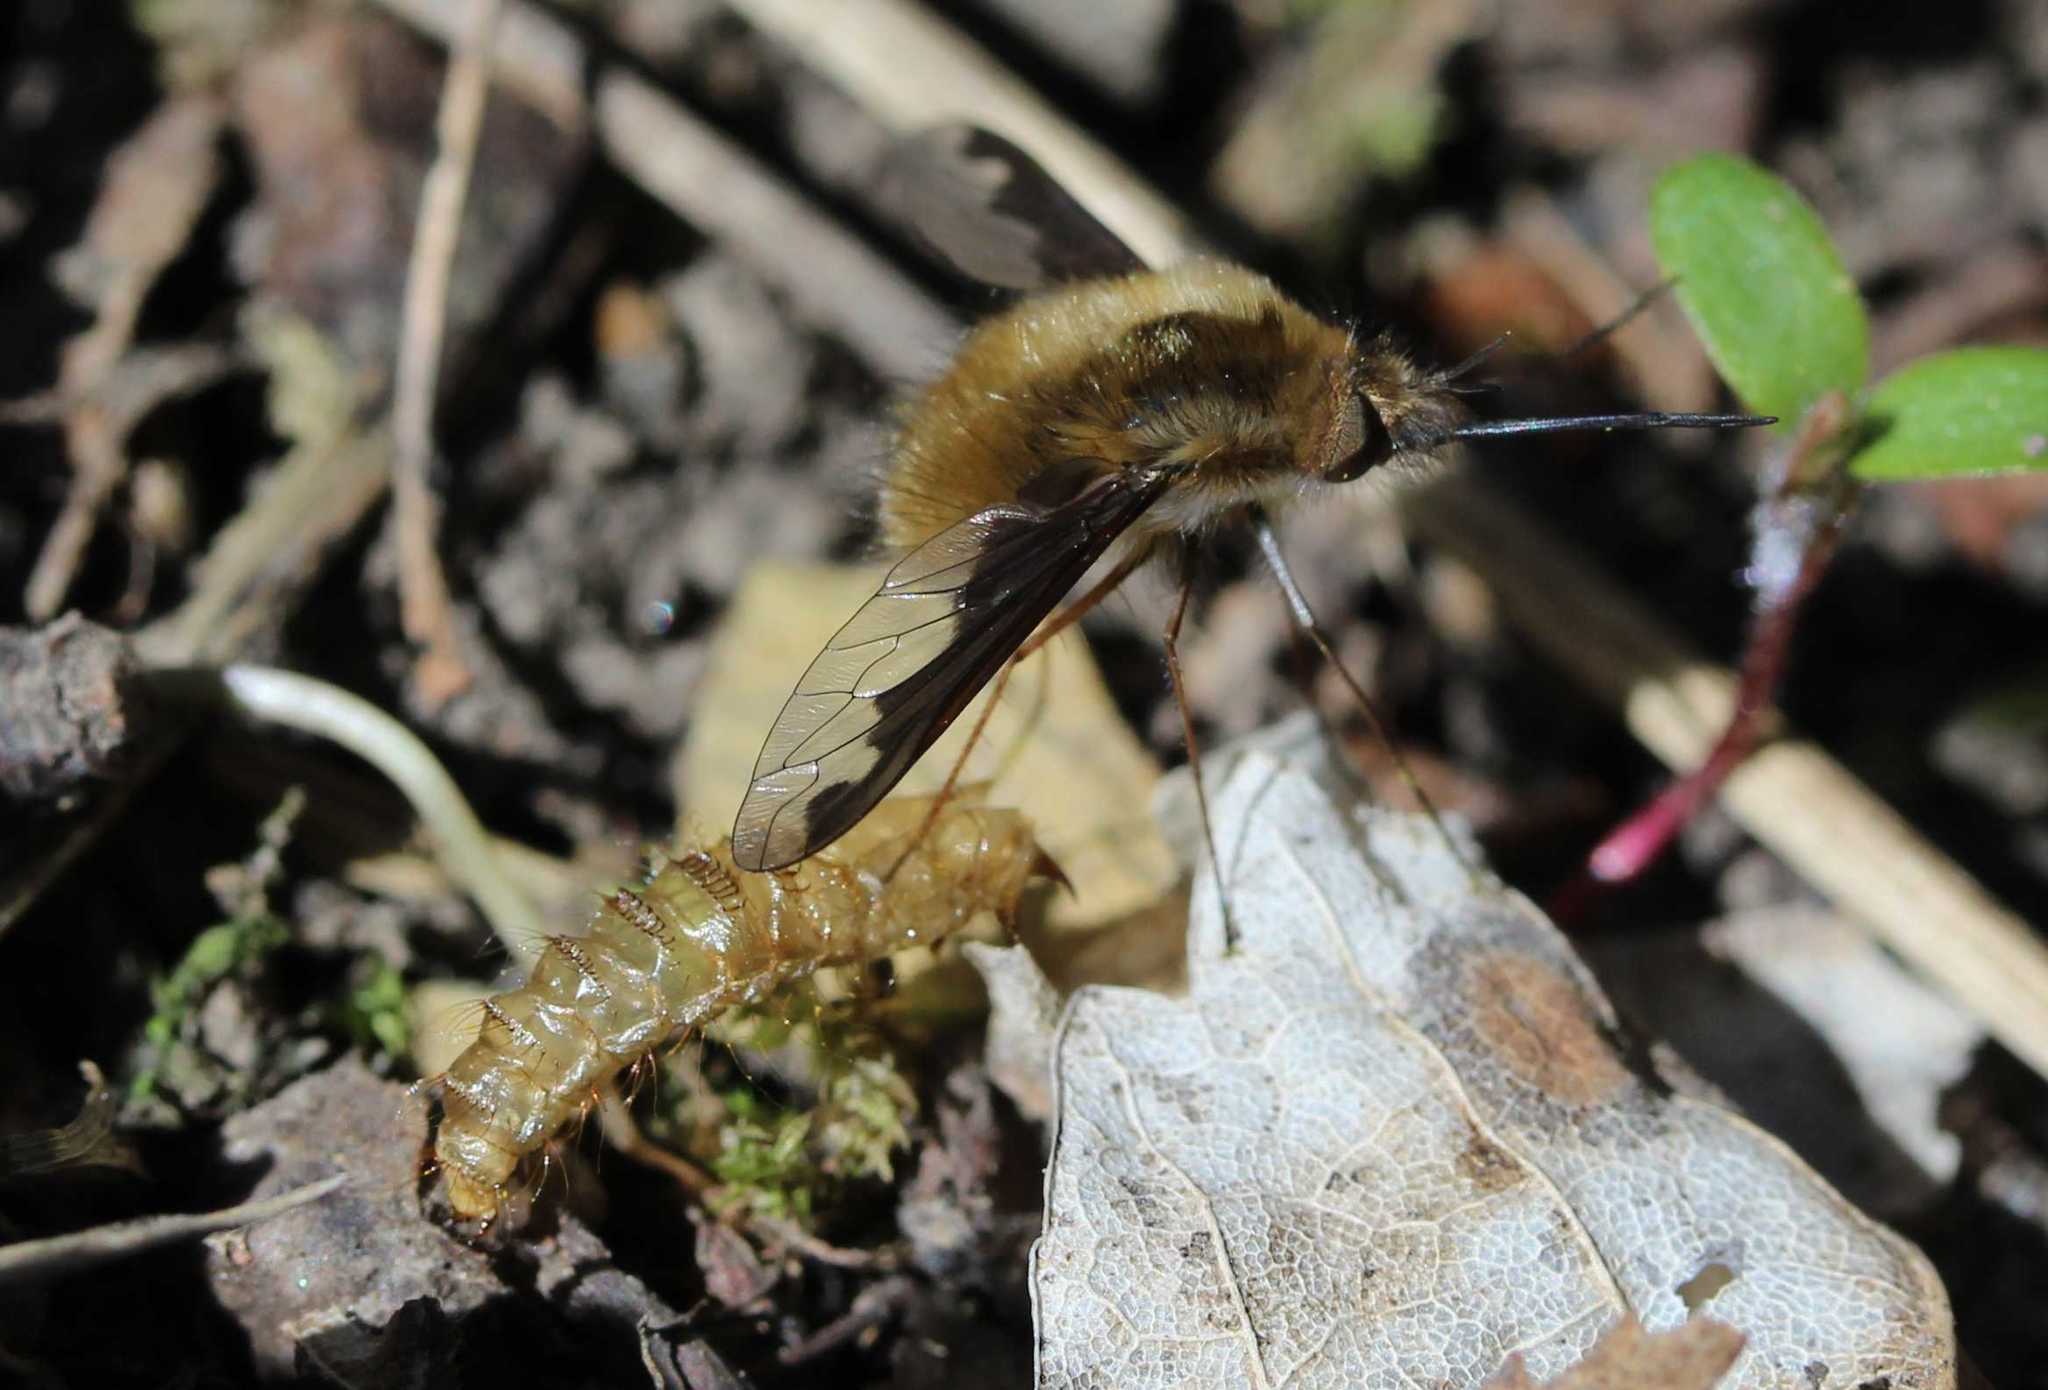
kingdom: Animalia
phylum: Arthropoda
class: Insecta
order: Diptera
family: Bombyliidae
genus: Bombylius
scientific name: Bombylius major
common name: Bee fly
